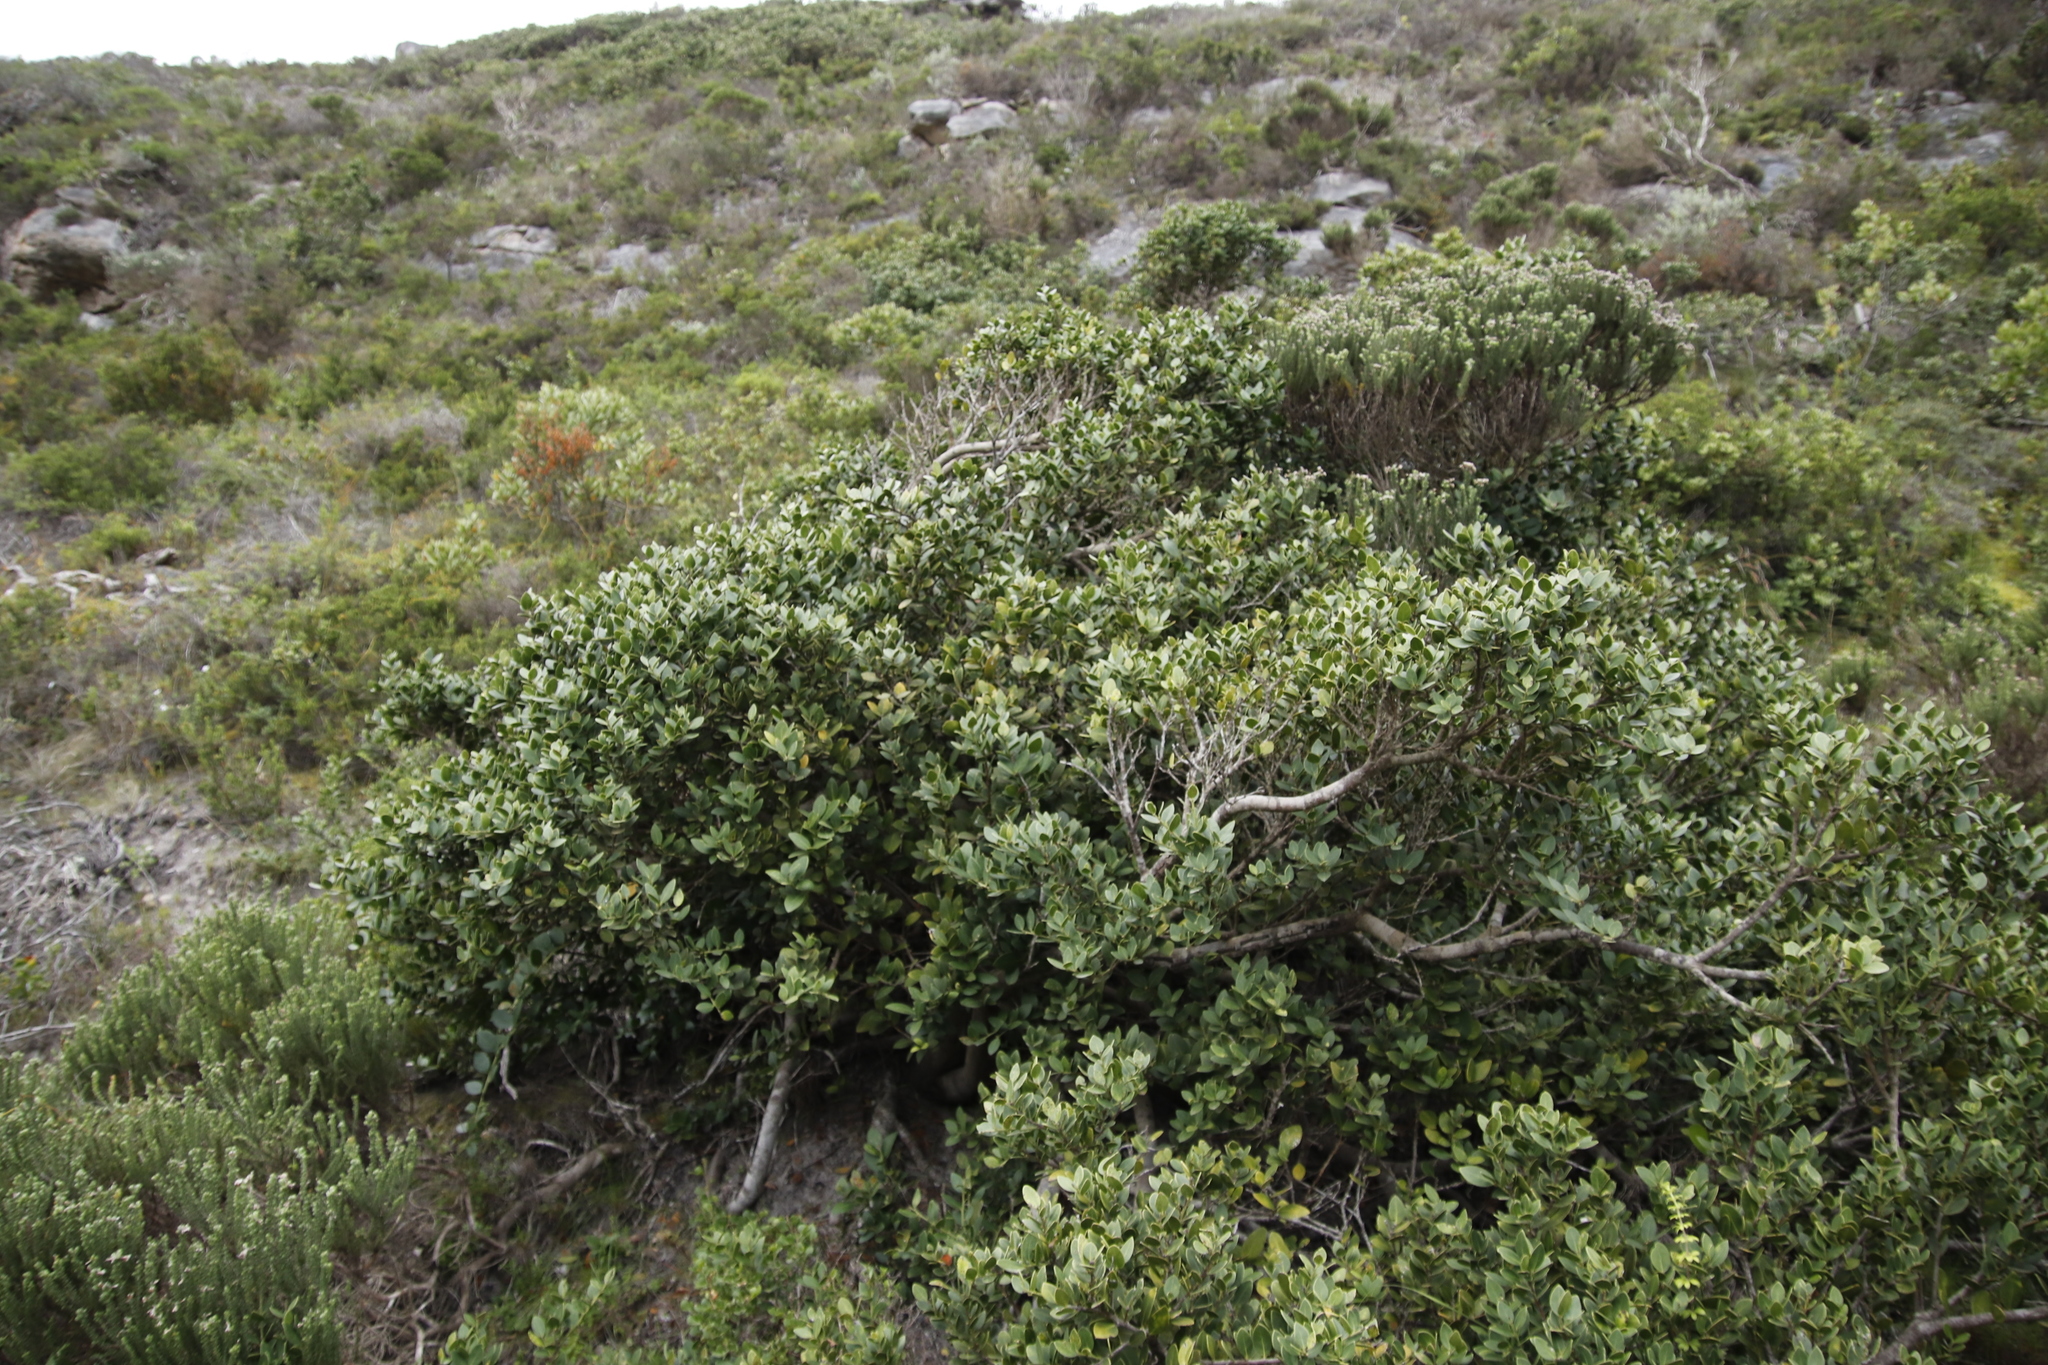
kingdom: Plantae
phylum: Tracheophyta
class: Magnoliopsida
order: Ericales
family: Ebenaceae
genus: Euclea
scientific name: Euclea racemosa
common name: Dune guarri
